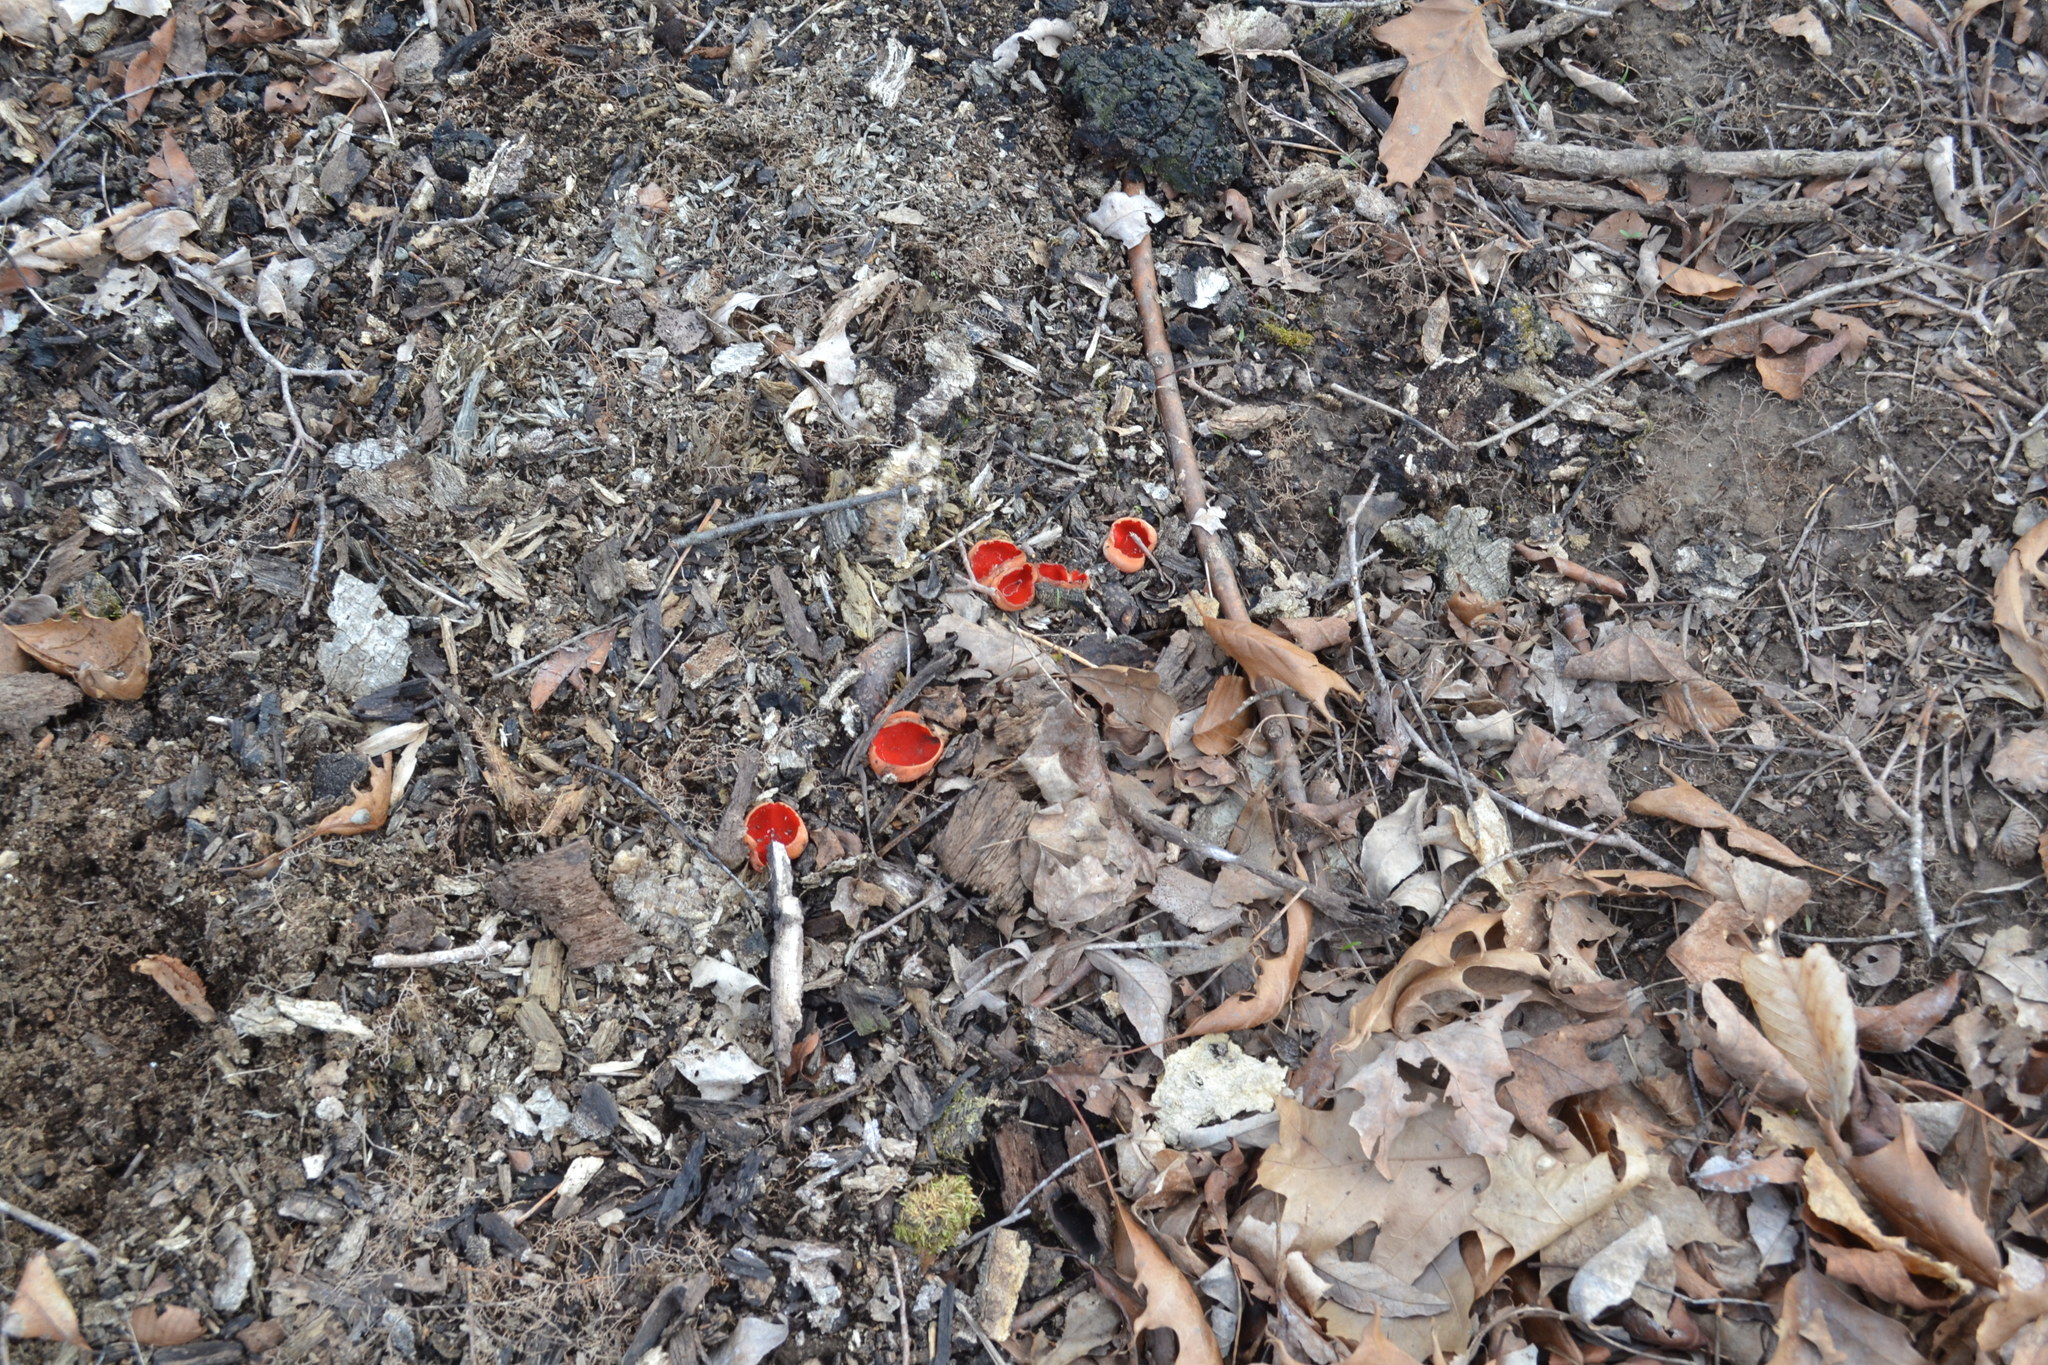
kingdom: Fungi
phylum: Ascomycota
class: Pezizomycetes
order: Pezizales
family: Sarcoscyphaceae
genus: Sarcoscypha
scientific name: Sarcoscypha dudleyi
